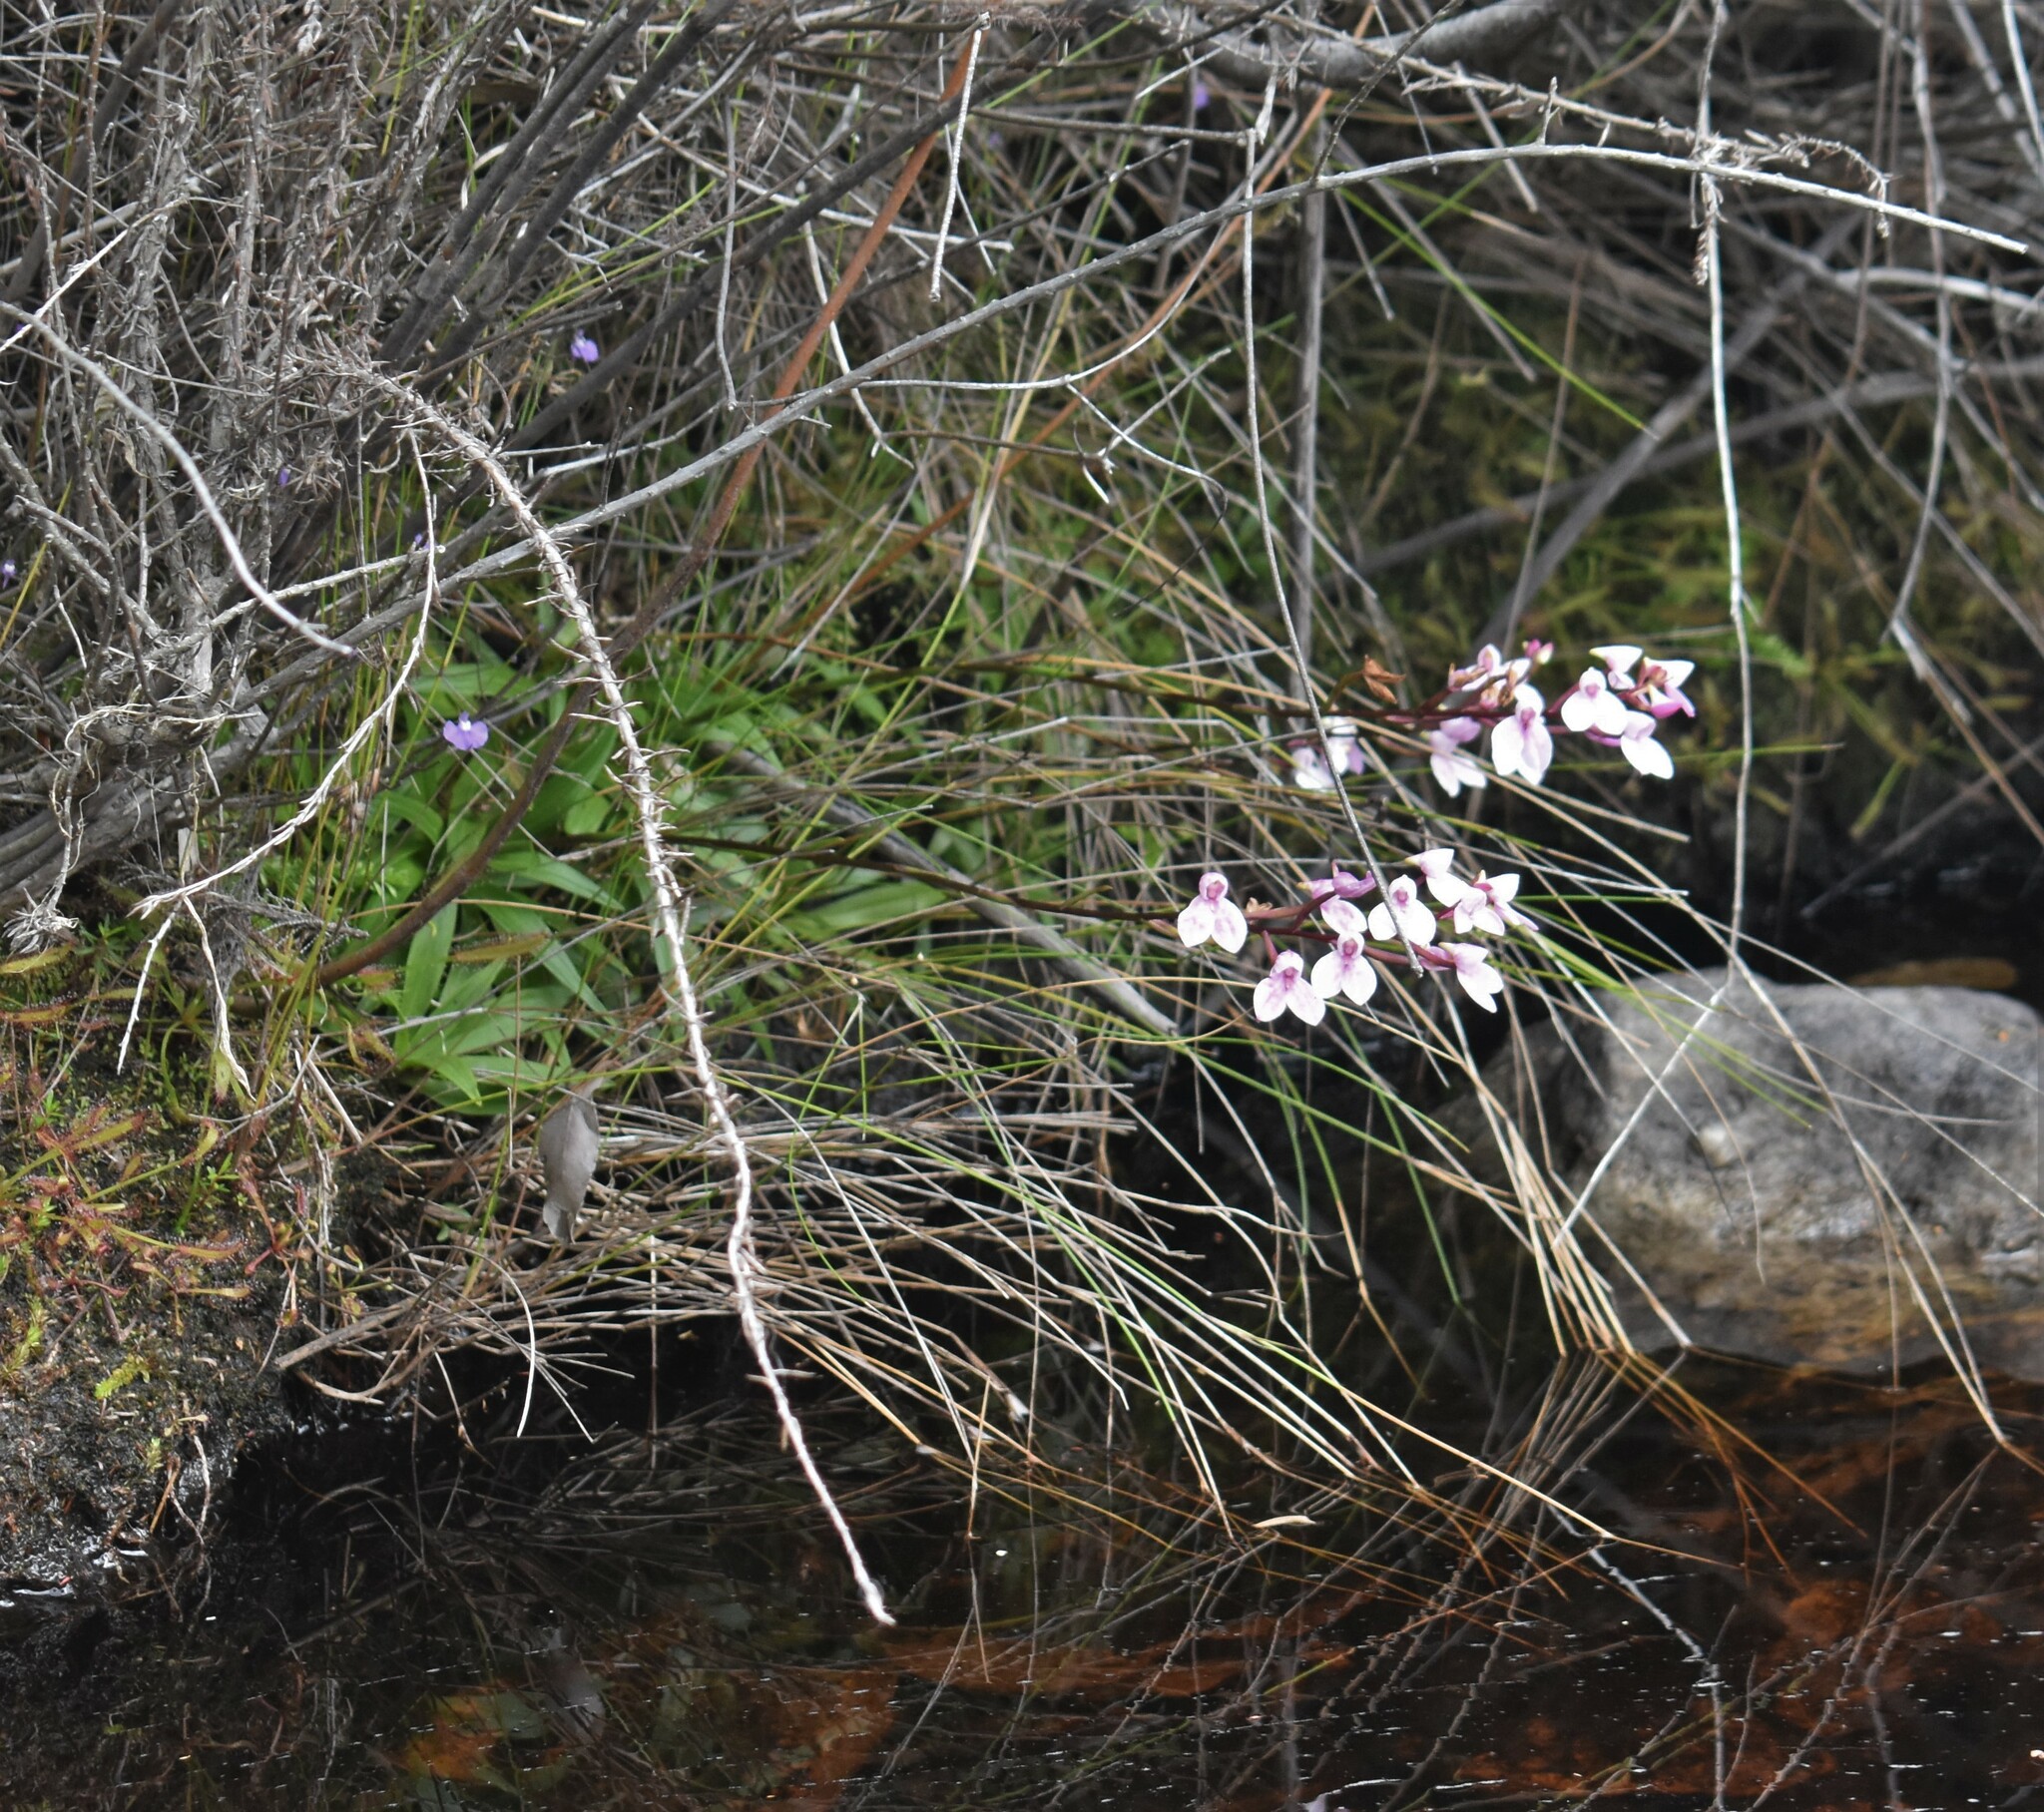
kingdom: Plantae
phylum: Tracheophyta
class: Liliopsida
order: Asparagales
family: Orchidaceae
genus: Disa
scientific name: Disa tripetaloides
